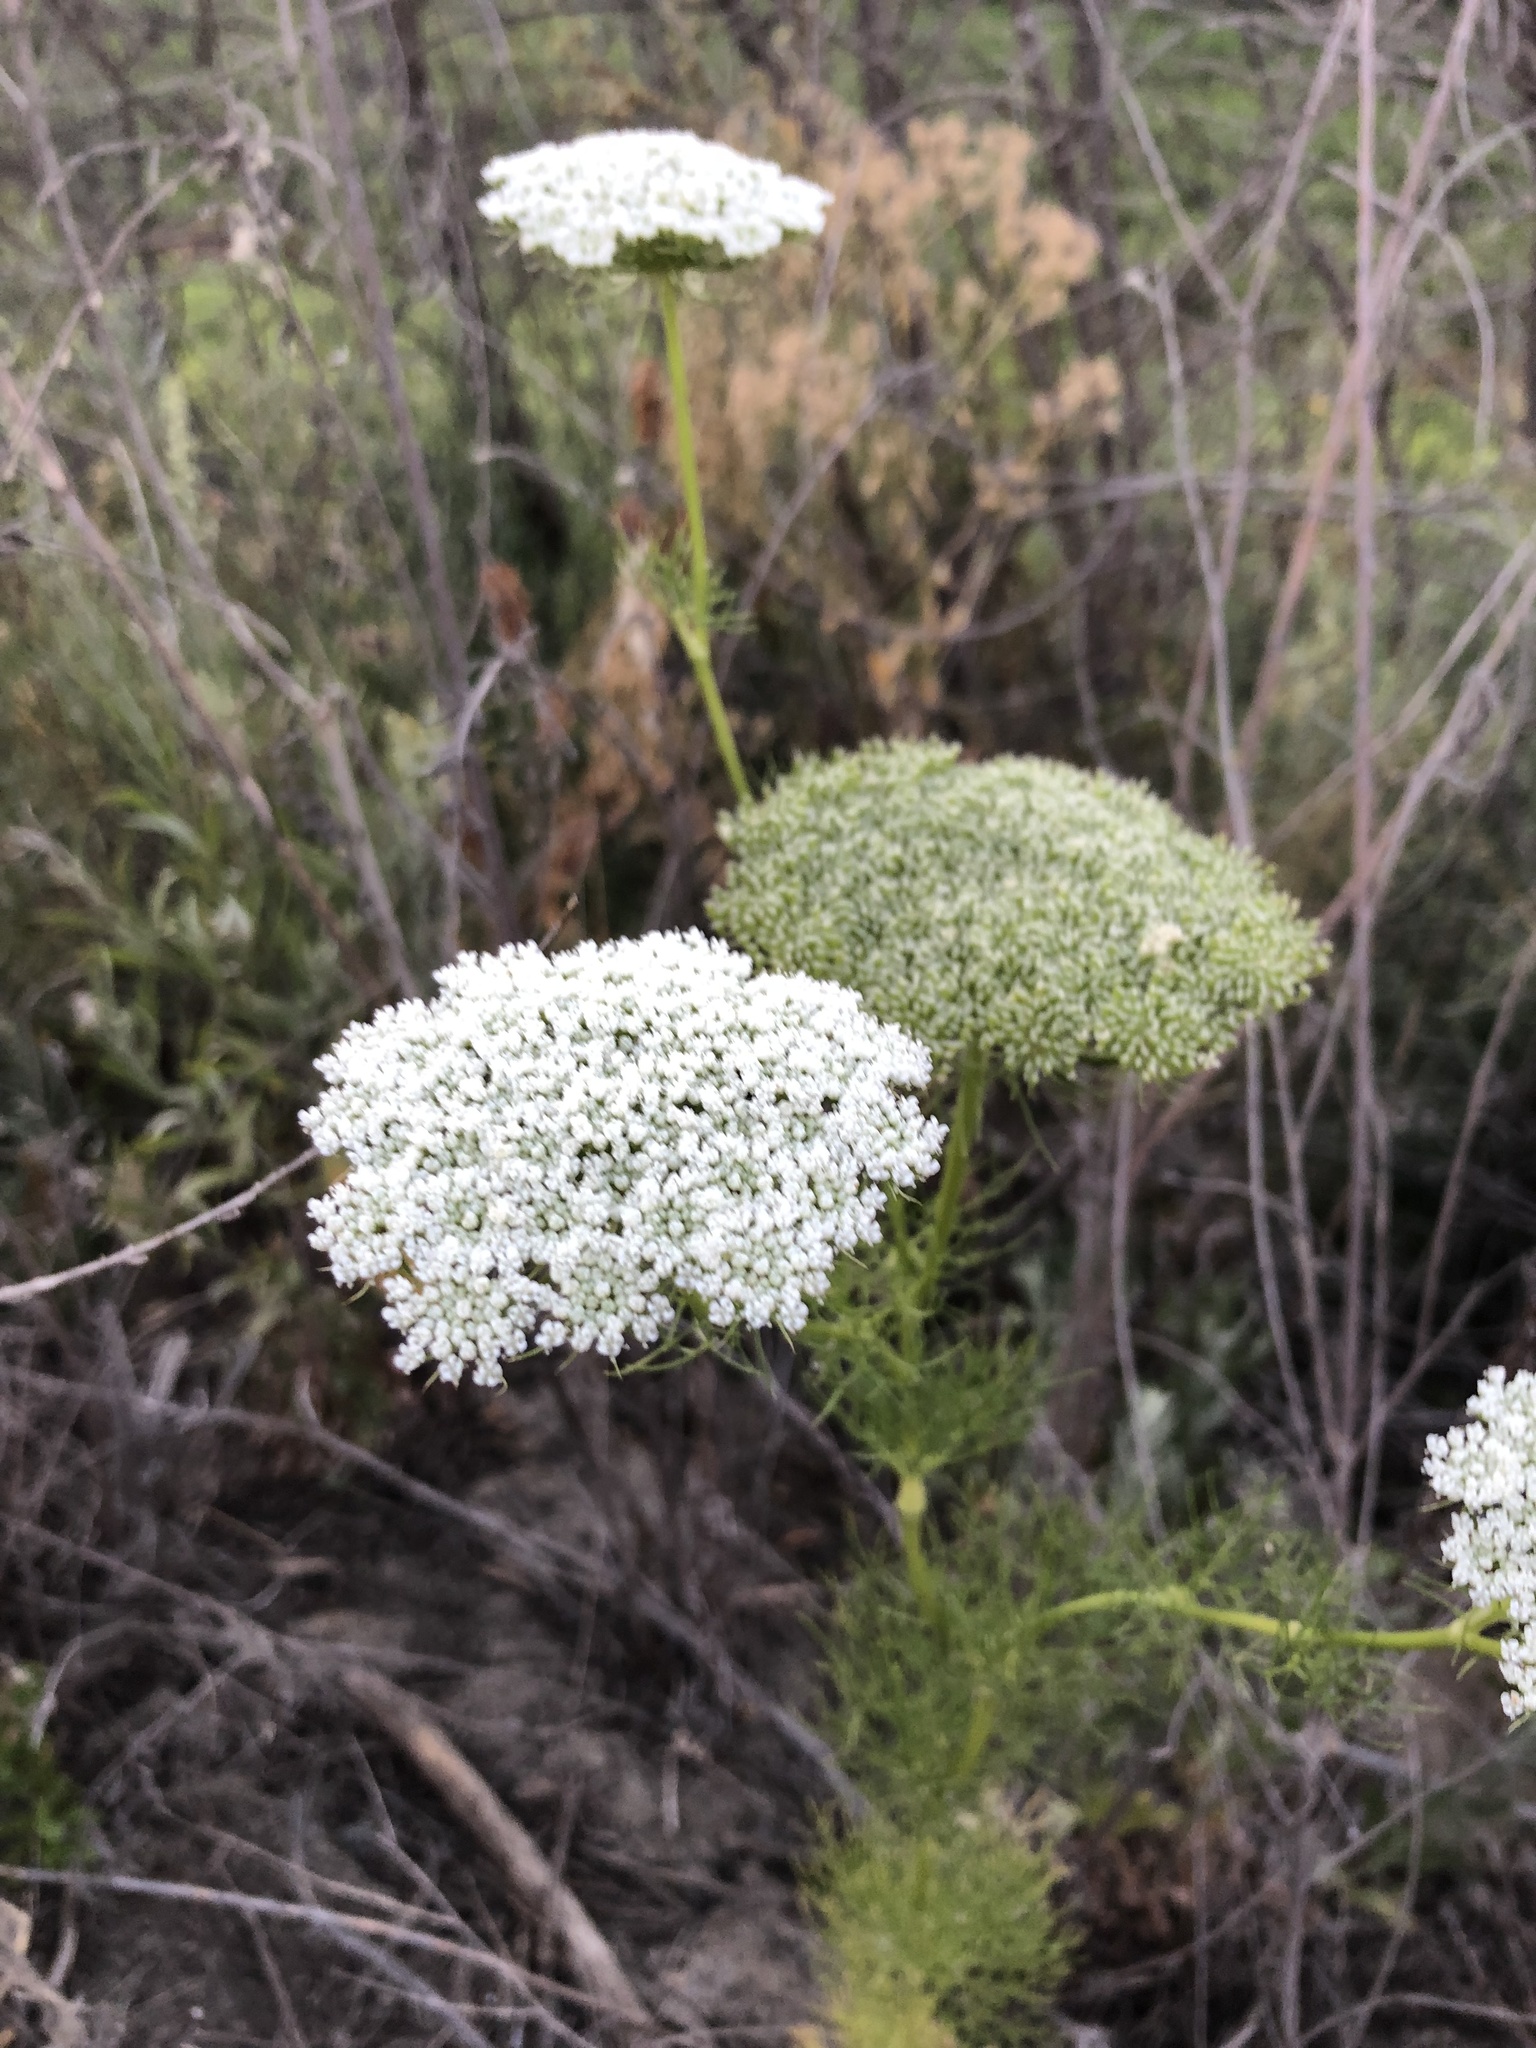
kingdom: Plantae
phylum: Tracheophyta
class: Magnoliopsida
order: Apiales
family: Apiaceae
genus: Visnaga
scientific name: Visnaga daucoides
